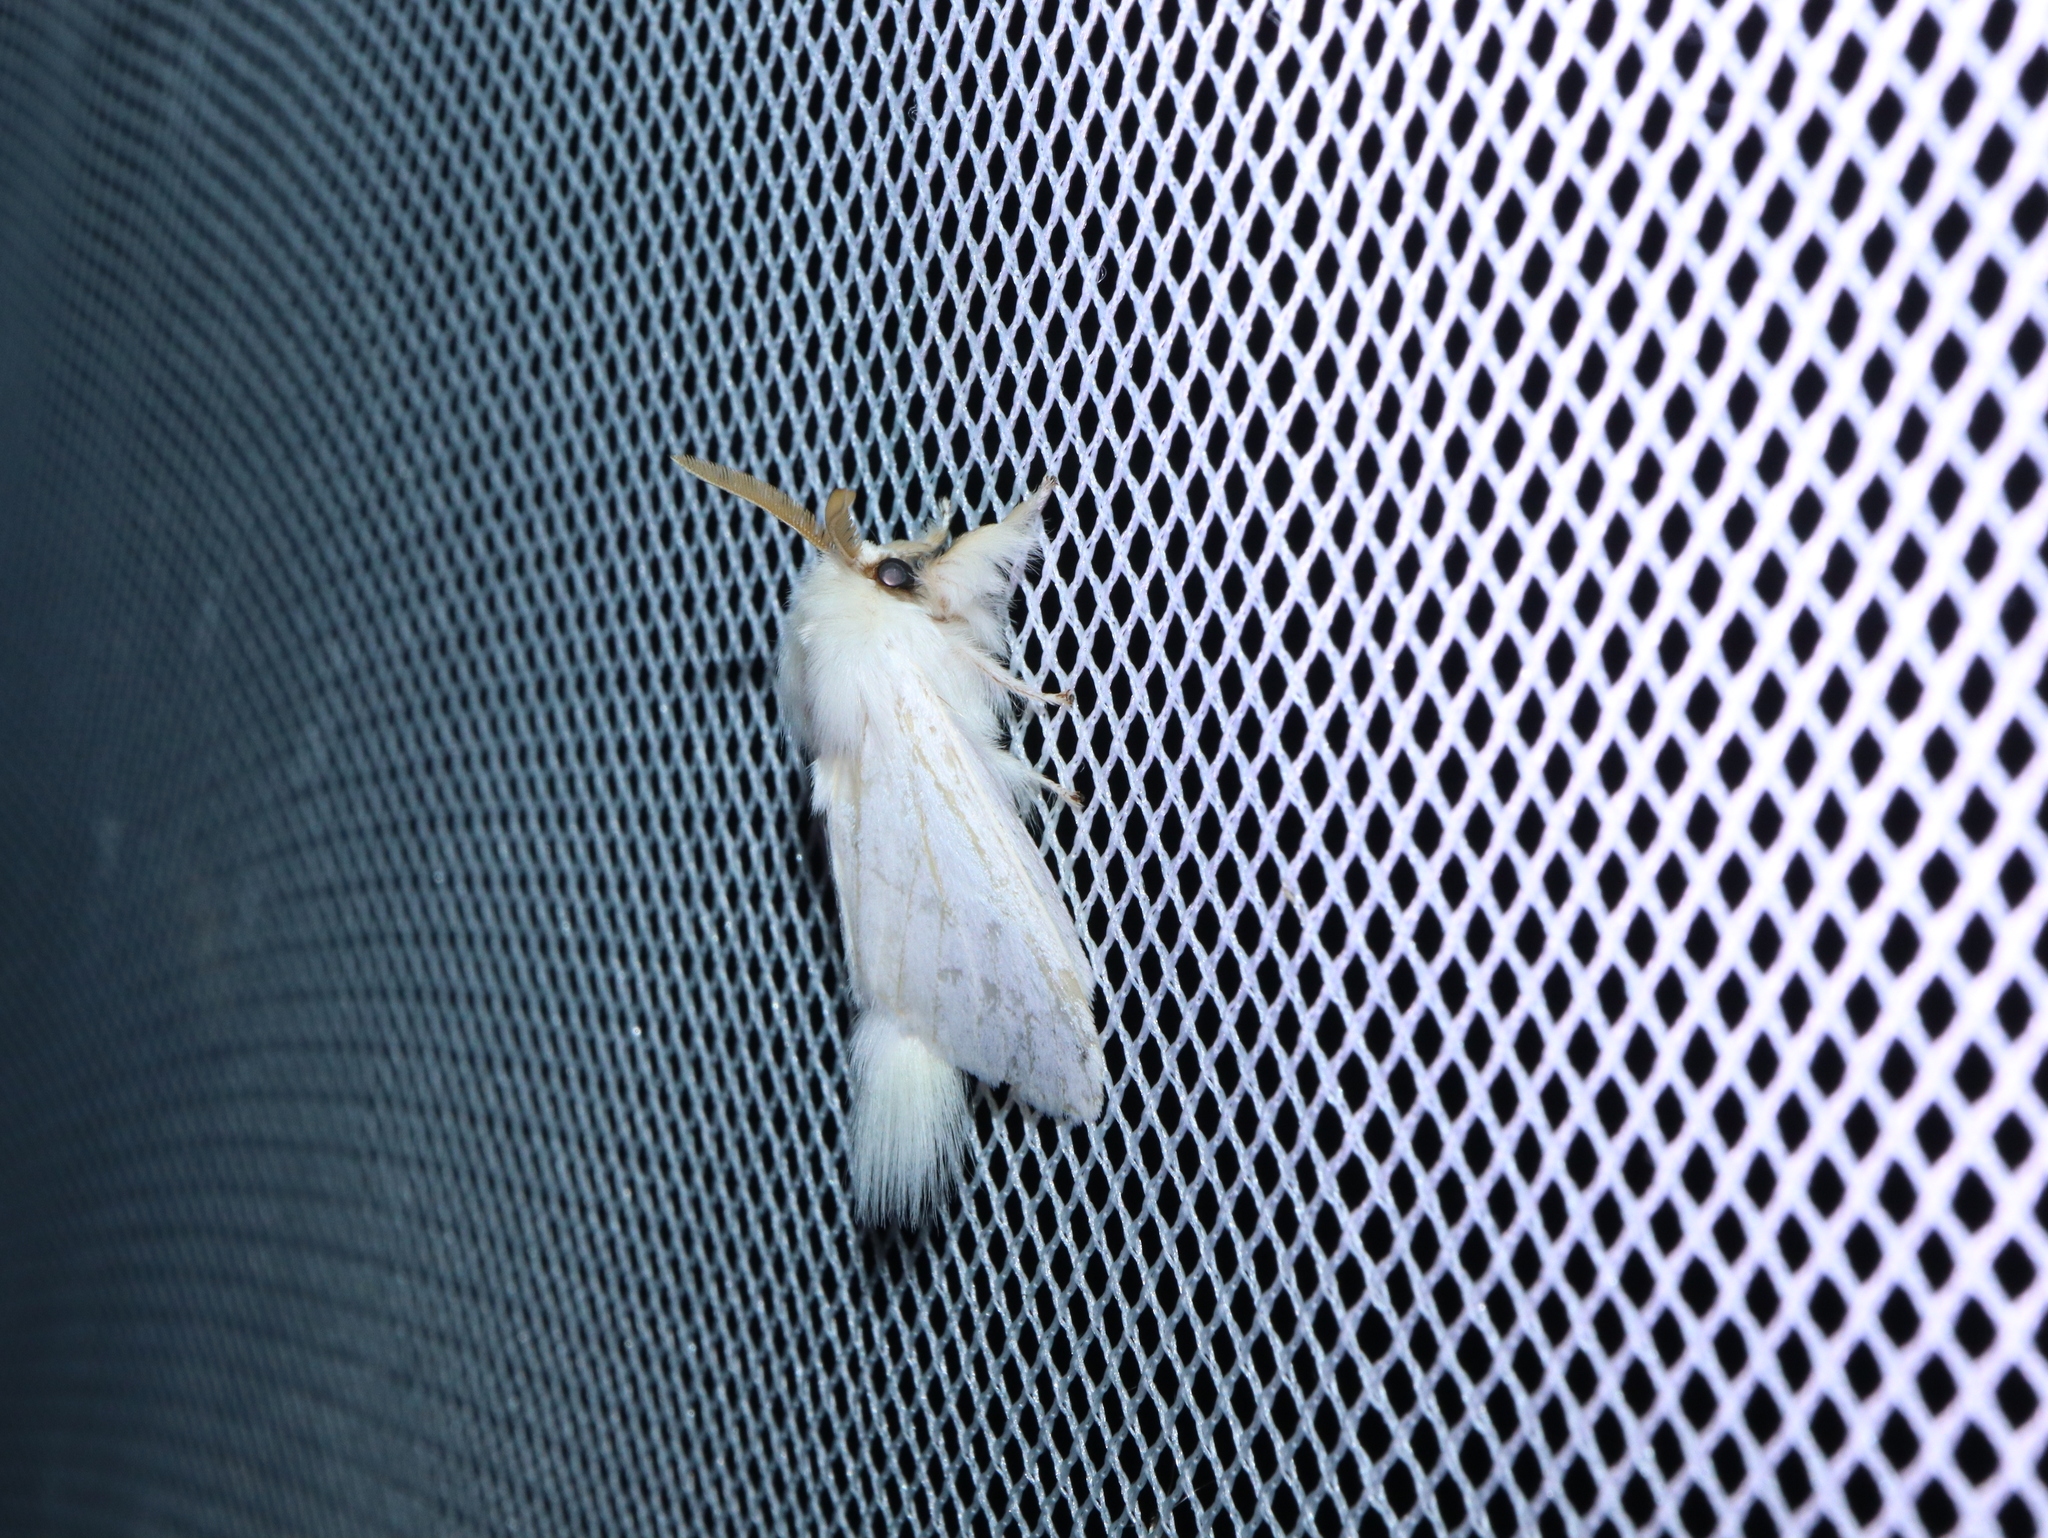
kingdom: Animalia
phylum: Arthropoda
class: Insecta
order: Lepidoptera
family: Notodontidae
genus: Trichiocercus
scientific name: Trichiocercus sparshalli
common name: Long-tailed satin
